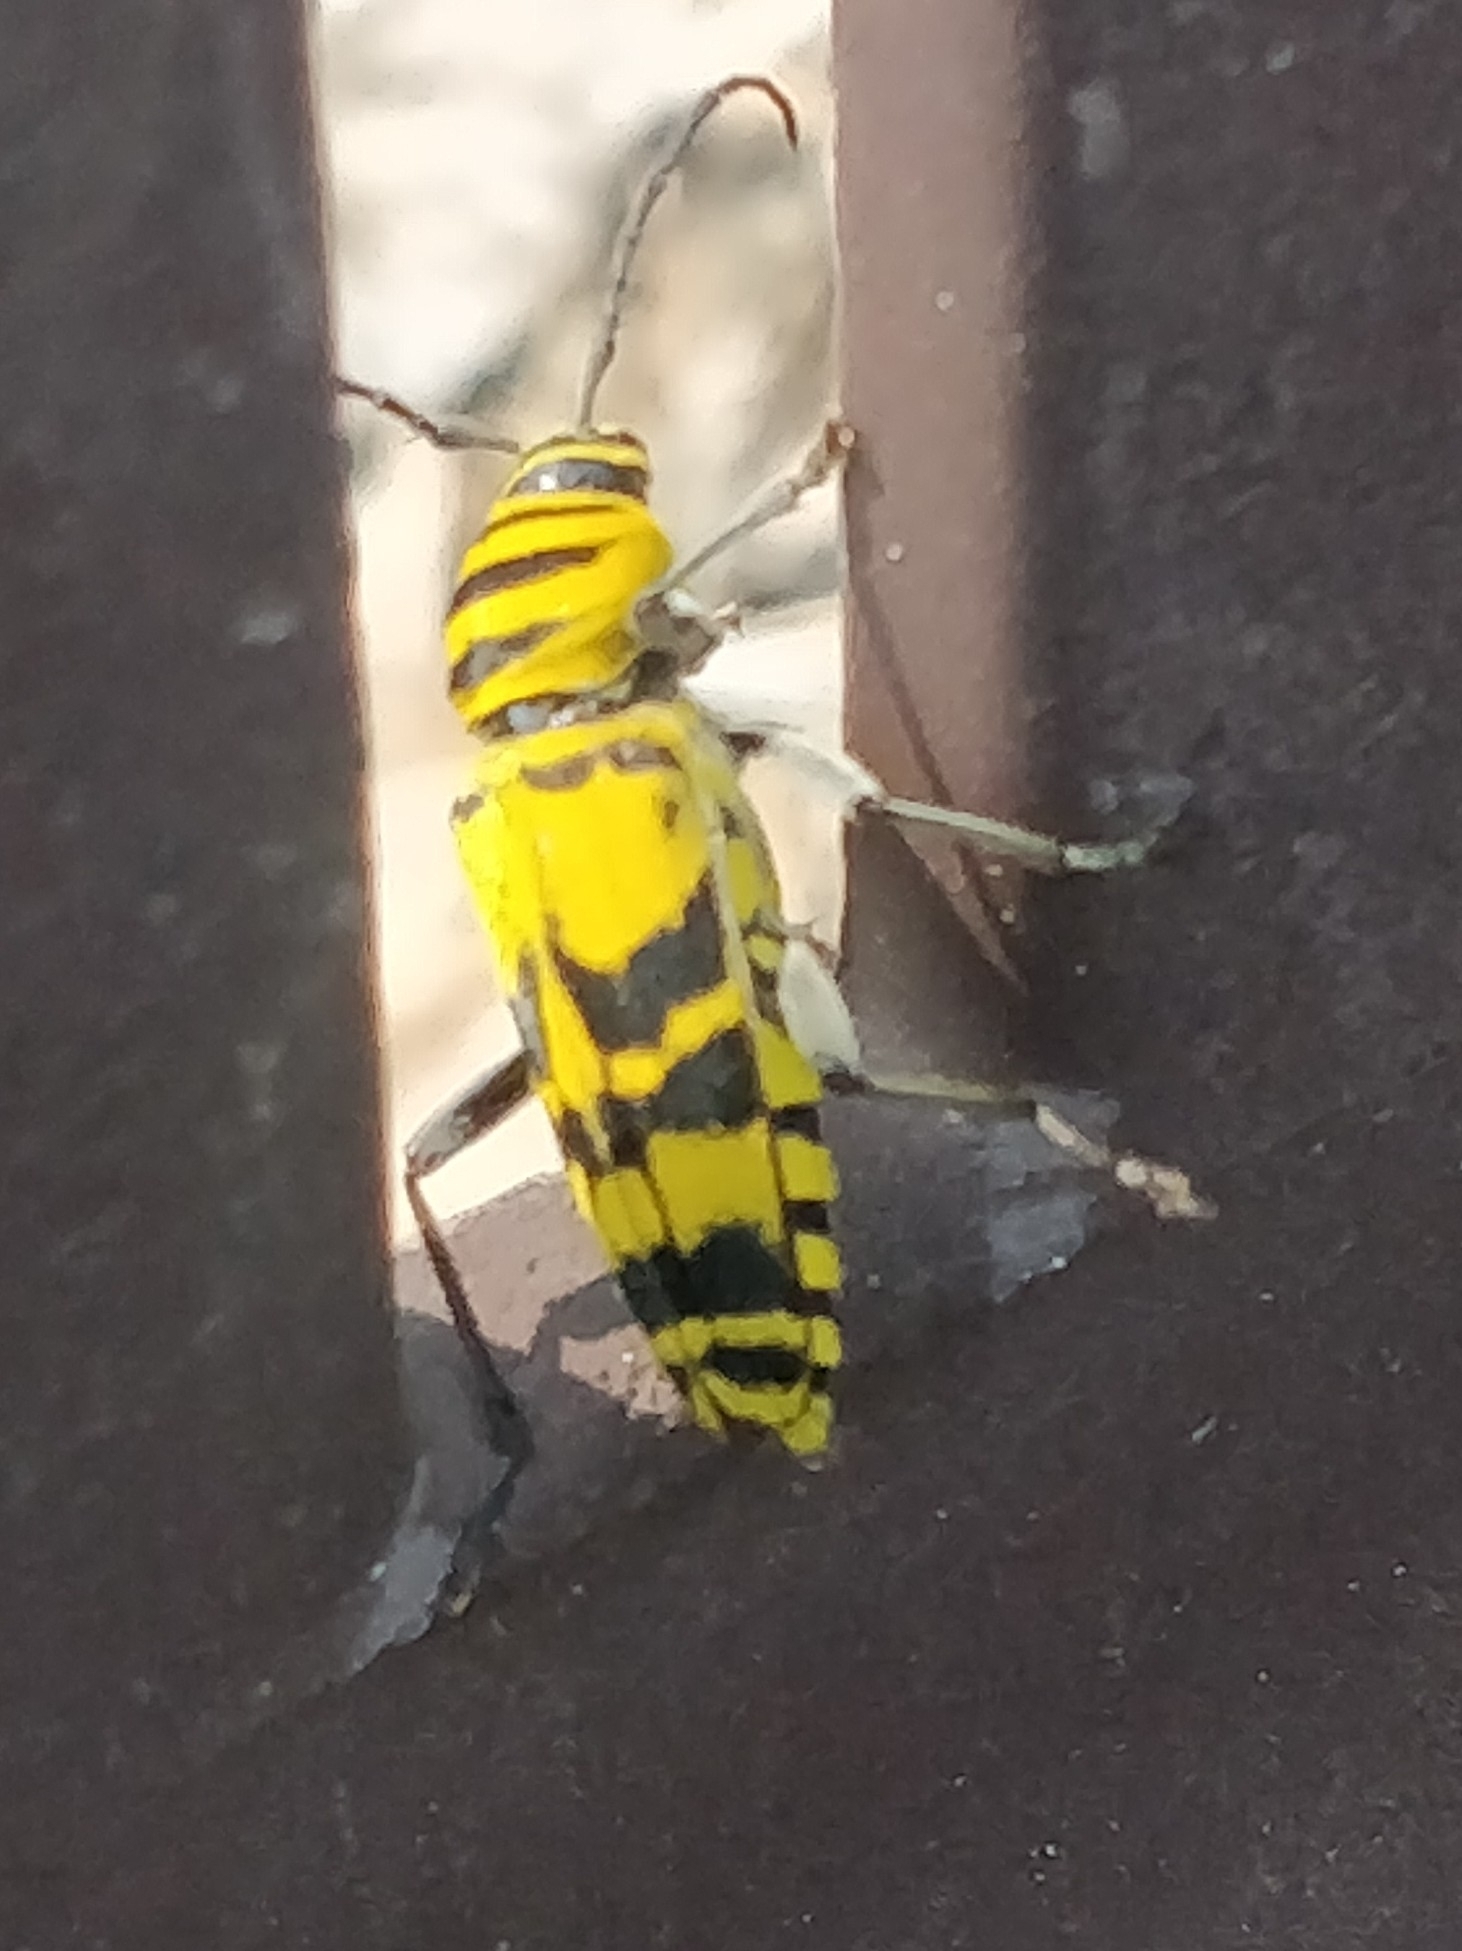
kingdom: Animalia
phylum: Arthropoda
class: Insecta
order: Coleoptera
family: Cerambycidae
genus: Megacyllene
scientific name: Megacyllene decora
